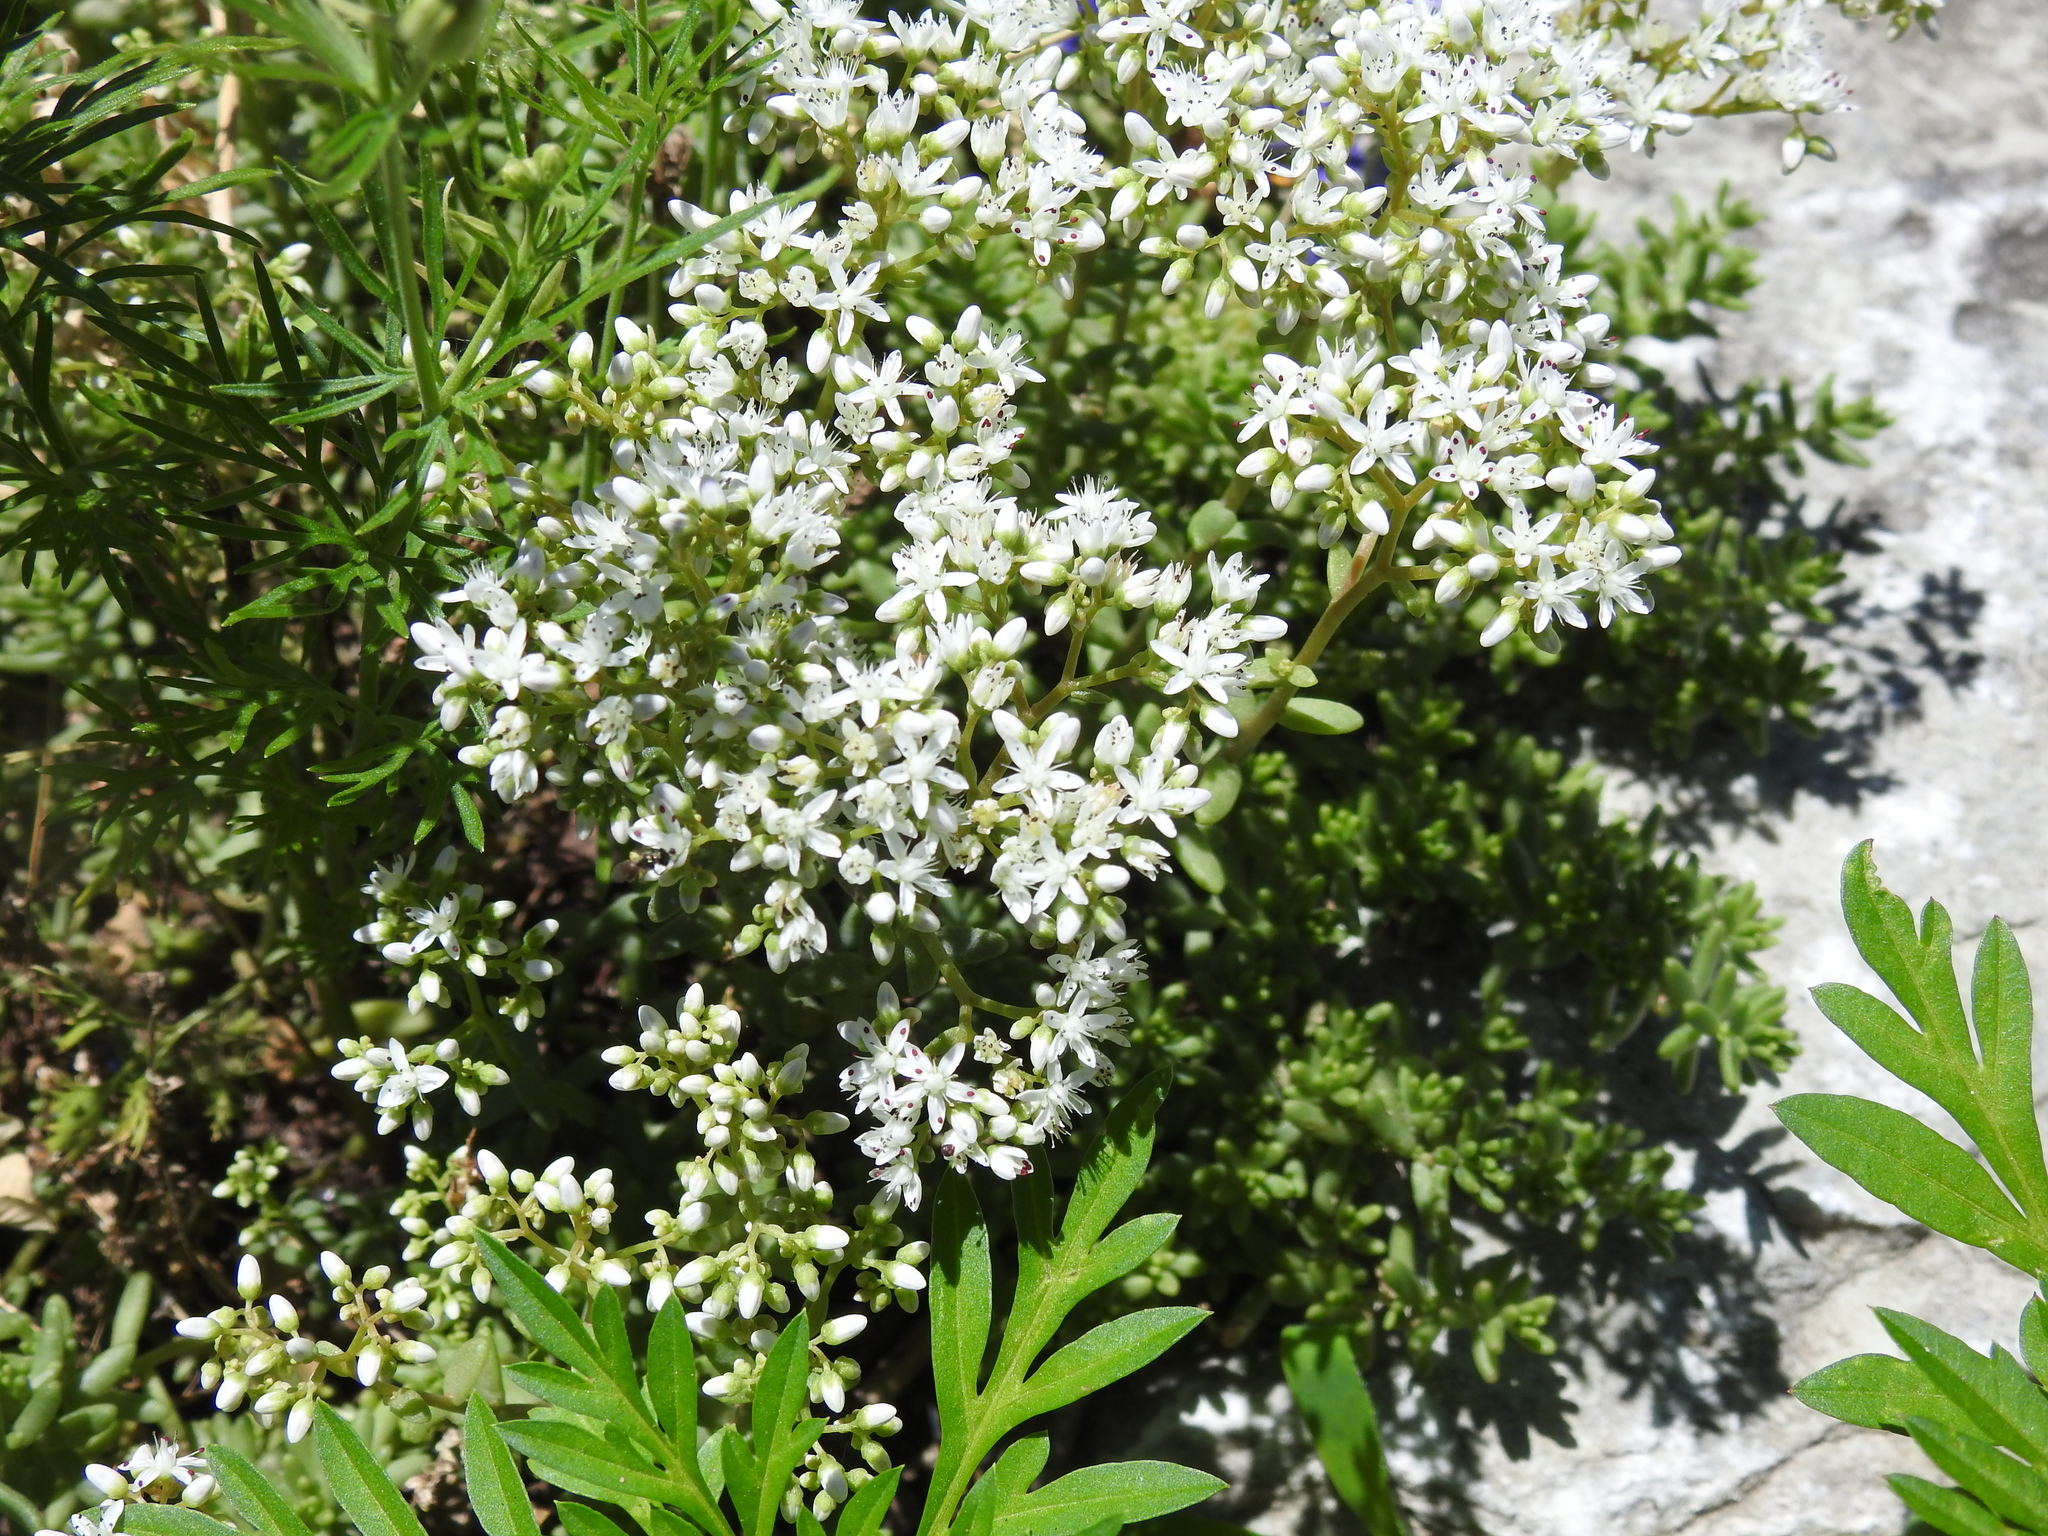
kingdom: Plantae
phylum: Tracheophyta
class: Magnoliopsida
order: Saxifragales
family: Crassulaceae
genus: Sedum
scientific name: Sedum album
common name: White stonecrop
